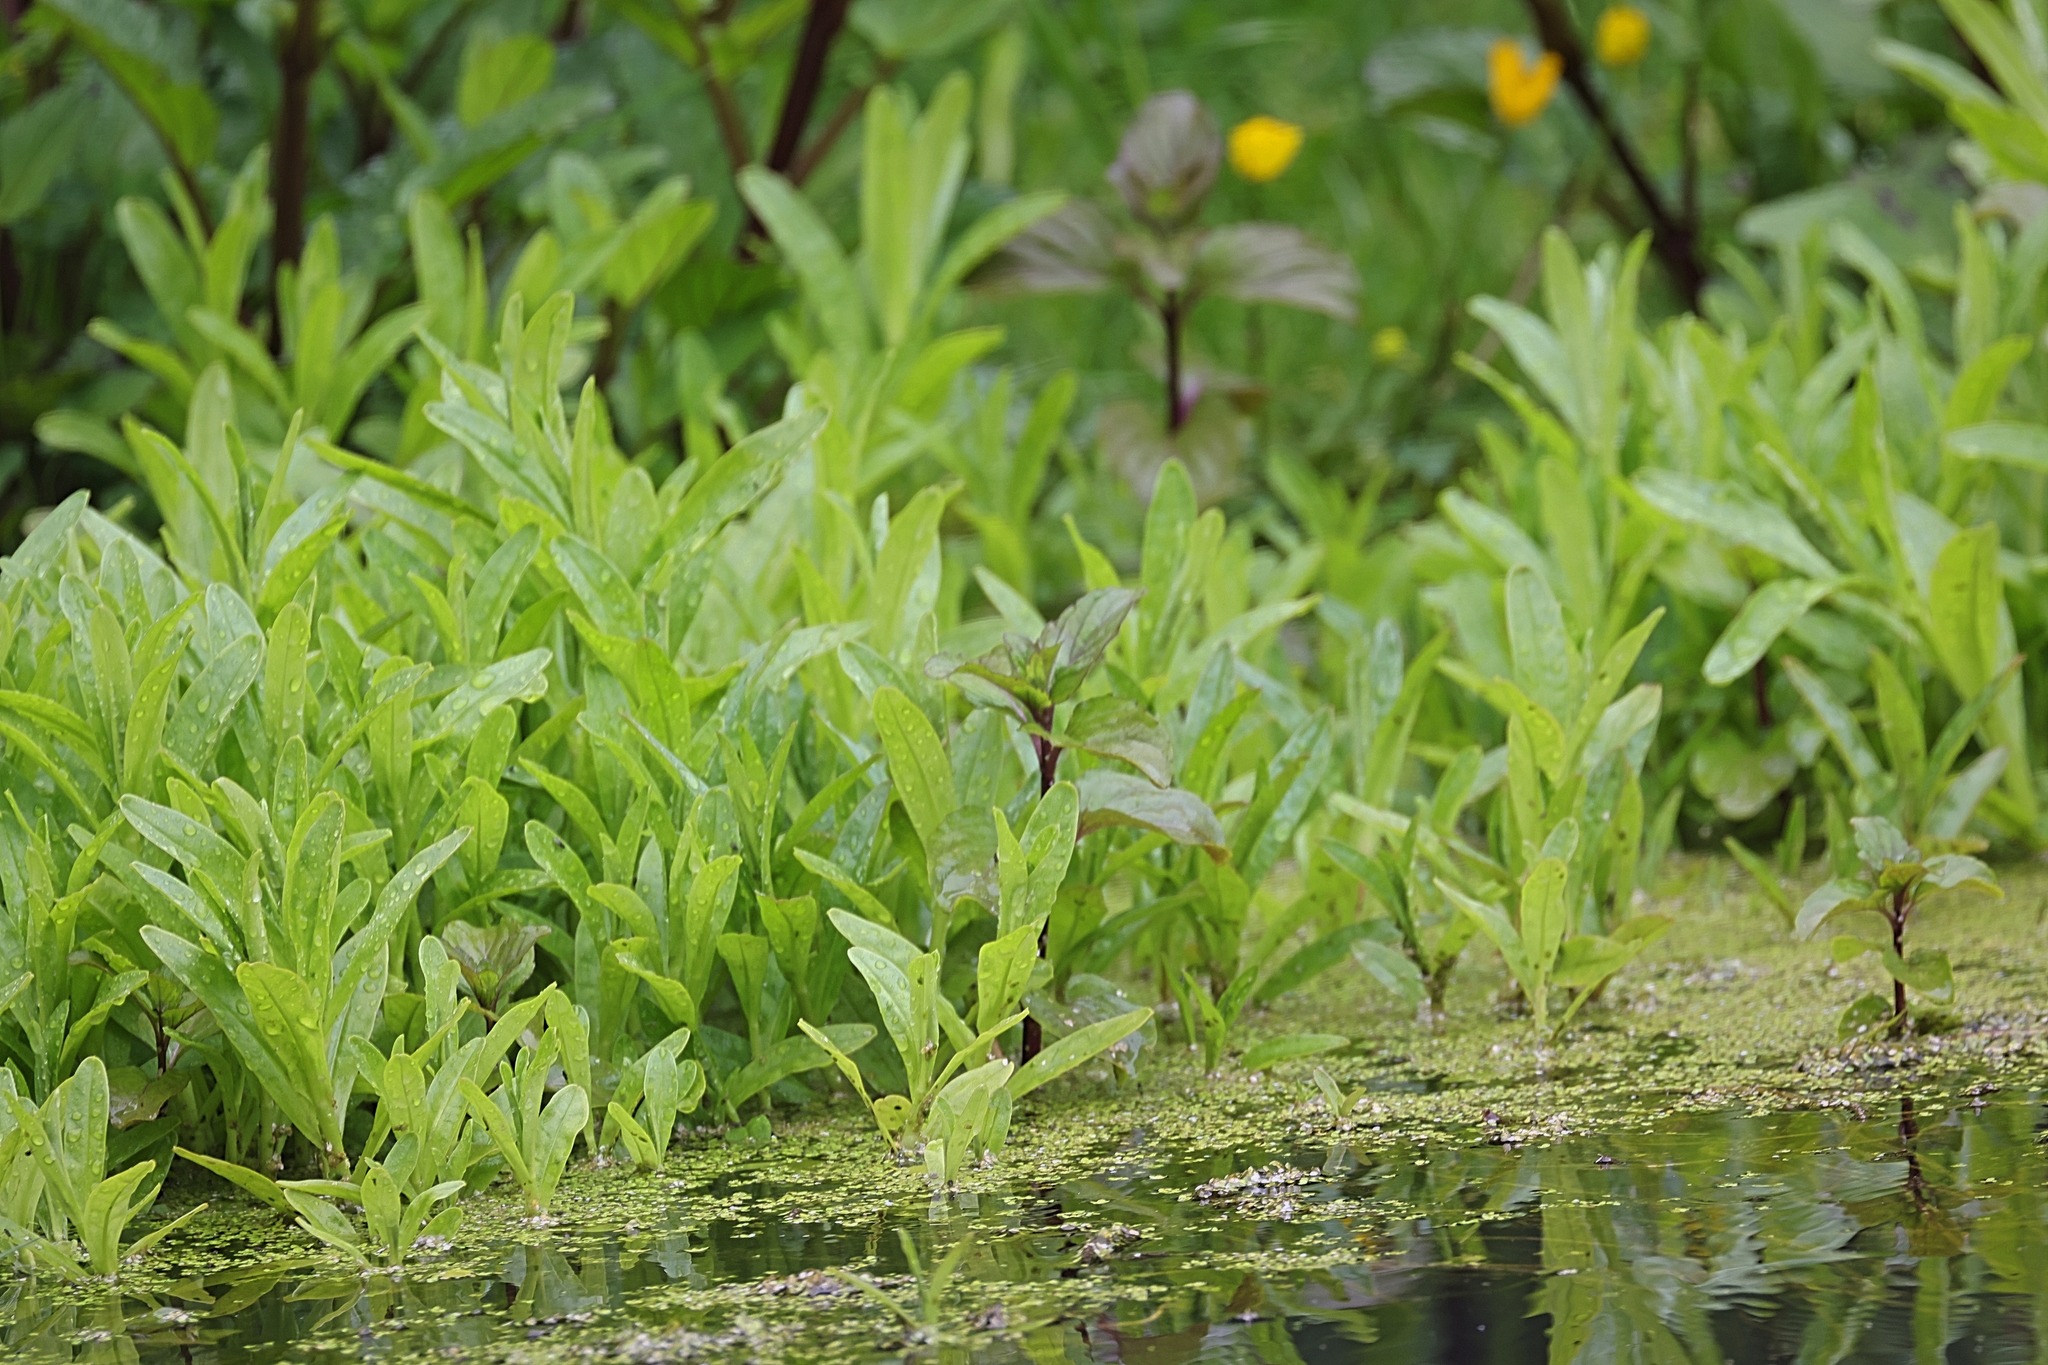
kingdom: Plantae
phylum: Tracheophyta
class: Magnoliopsida
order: Boraginales
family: Boraginaceae
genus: Myosotis
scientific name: Myosotis scorpioides
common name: Water forget-me-not
